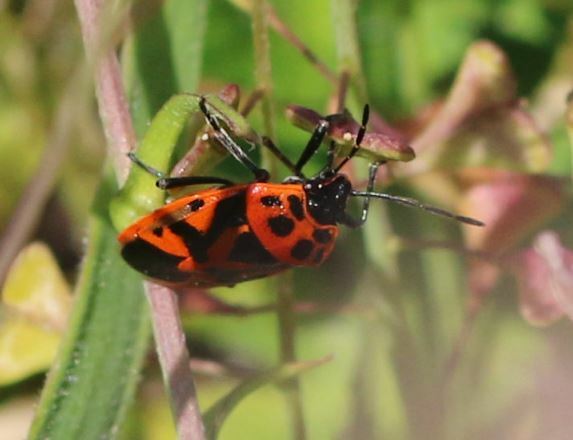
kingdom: Animalia
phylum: Arthropoda
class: Insecta
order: Hemiptera
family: Pentatomidae
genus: Eurydema
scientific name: Eurydema ornata
